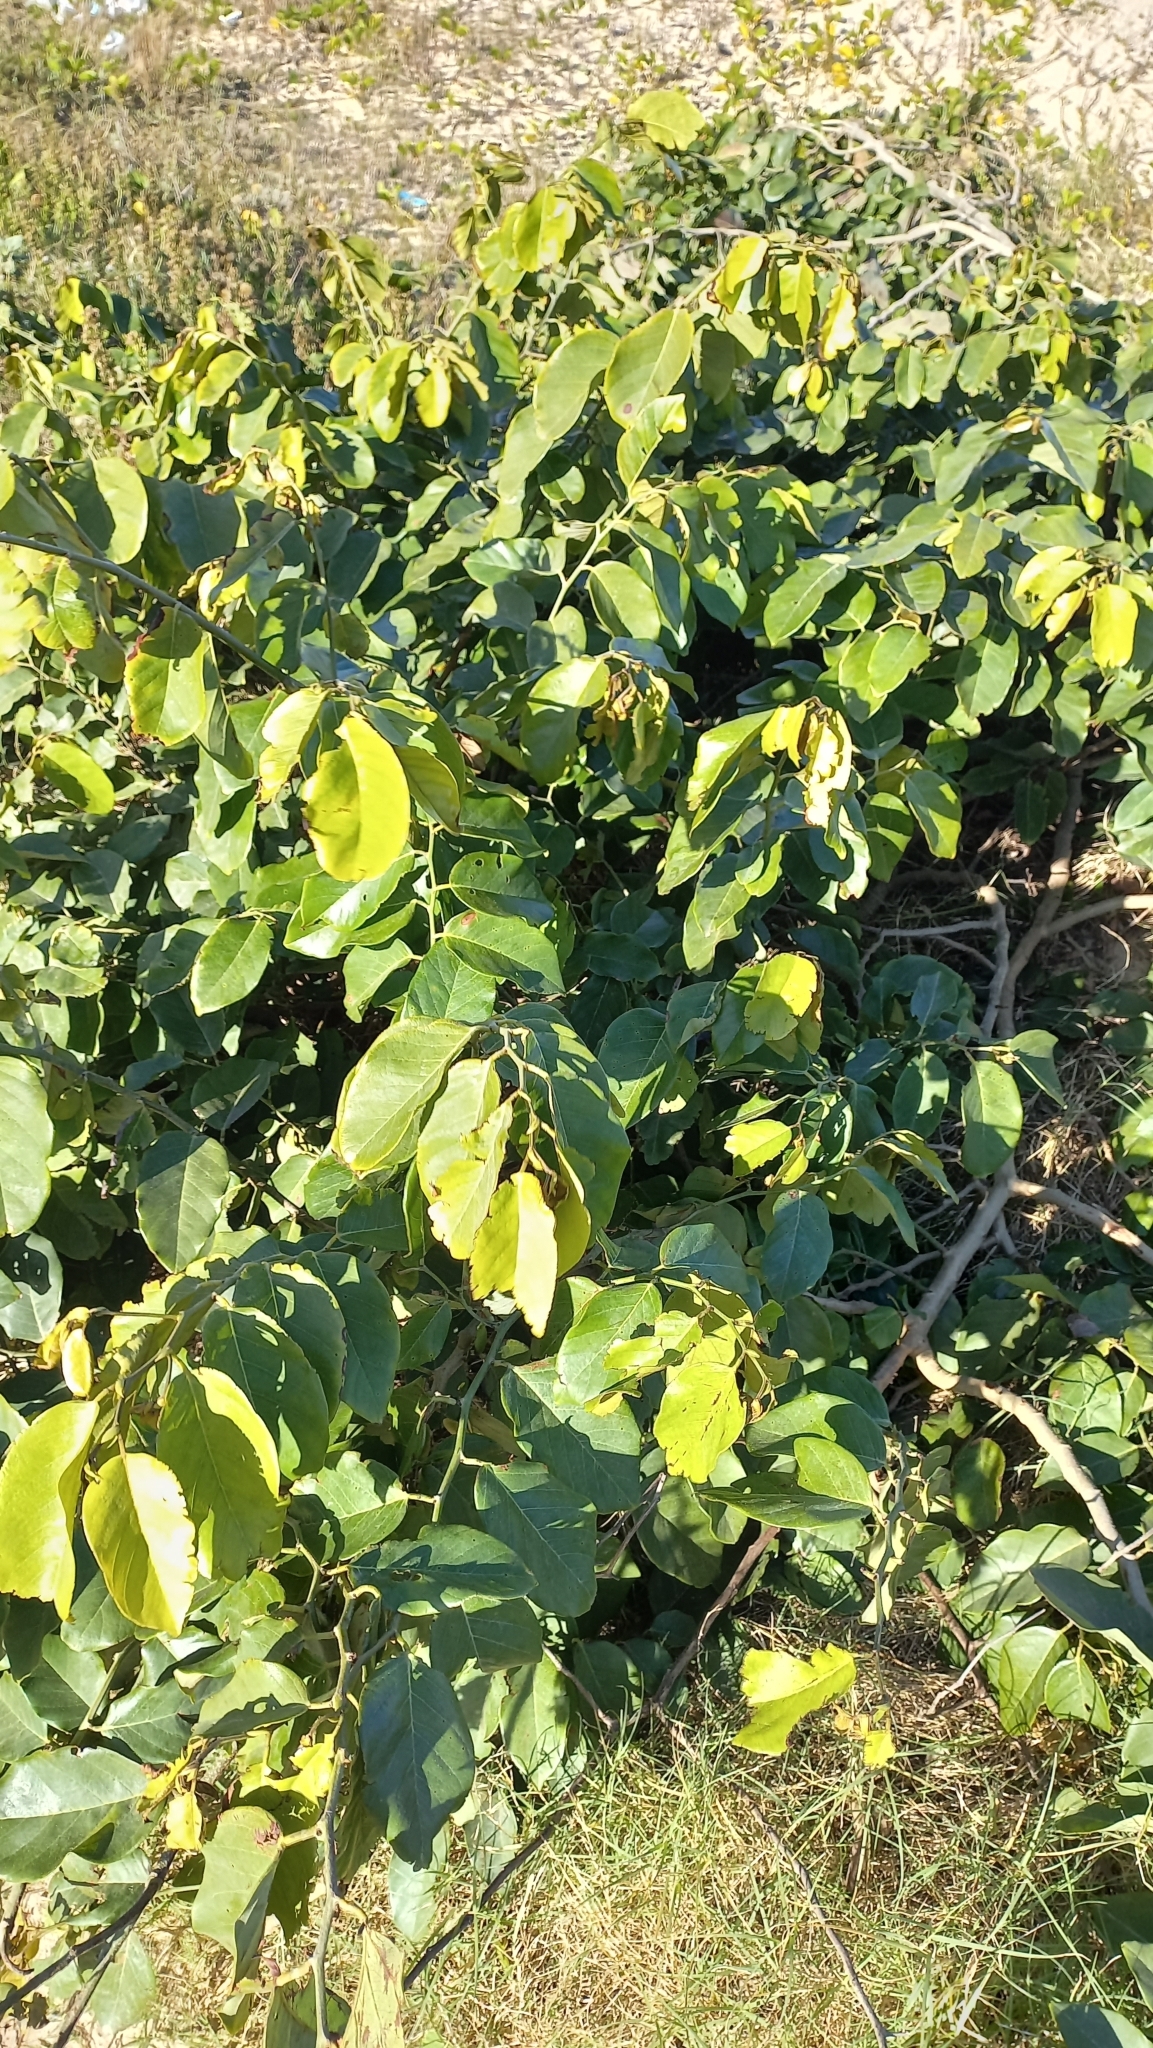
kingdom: Plantae
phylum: Tracheophyta
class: Magnoliopsida
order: Fabales
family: Fabaceae
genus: Dalbergia
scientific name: Dalbergia ecastaphyllum
